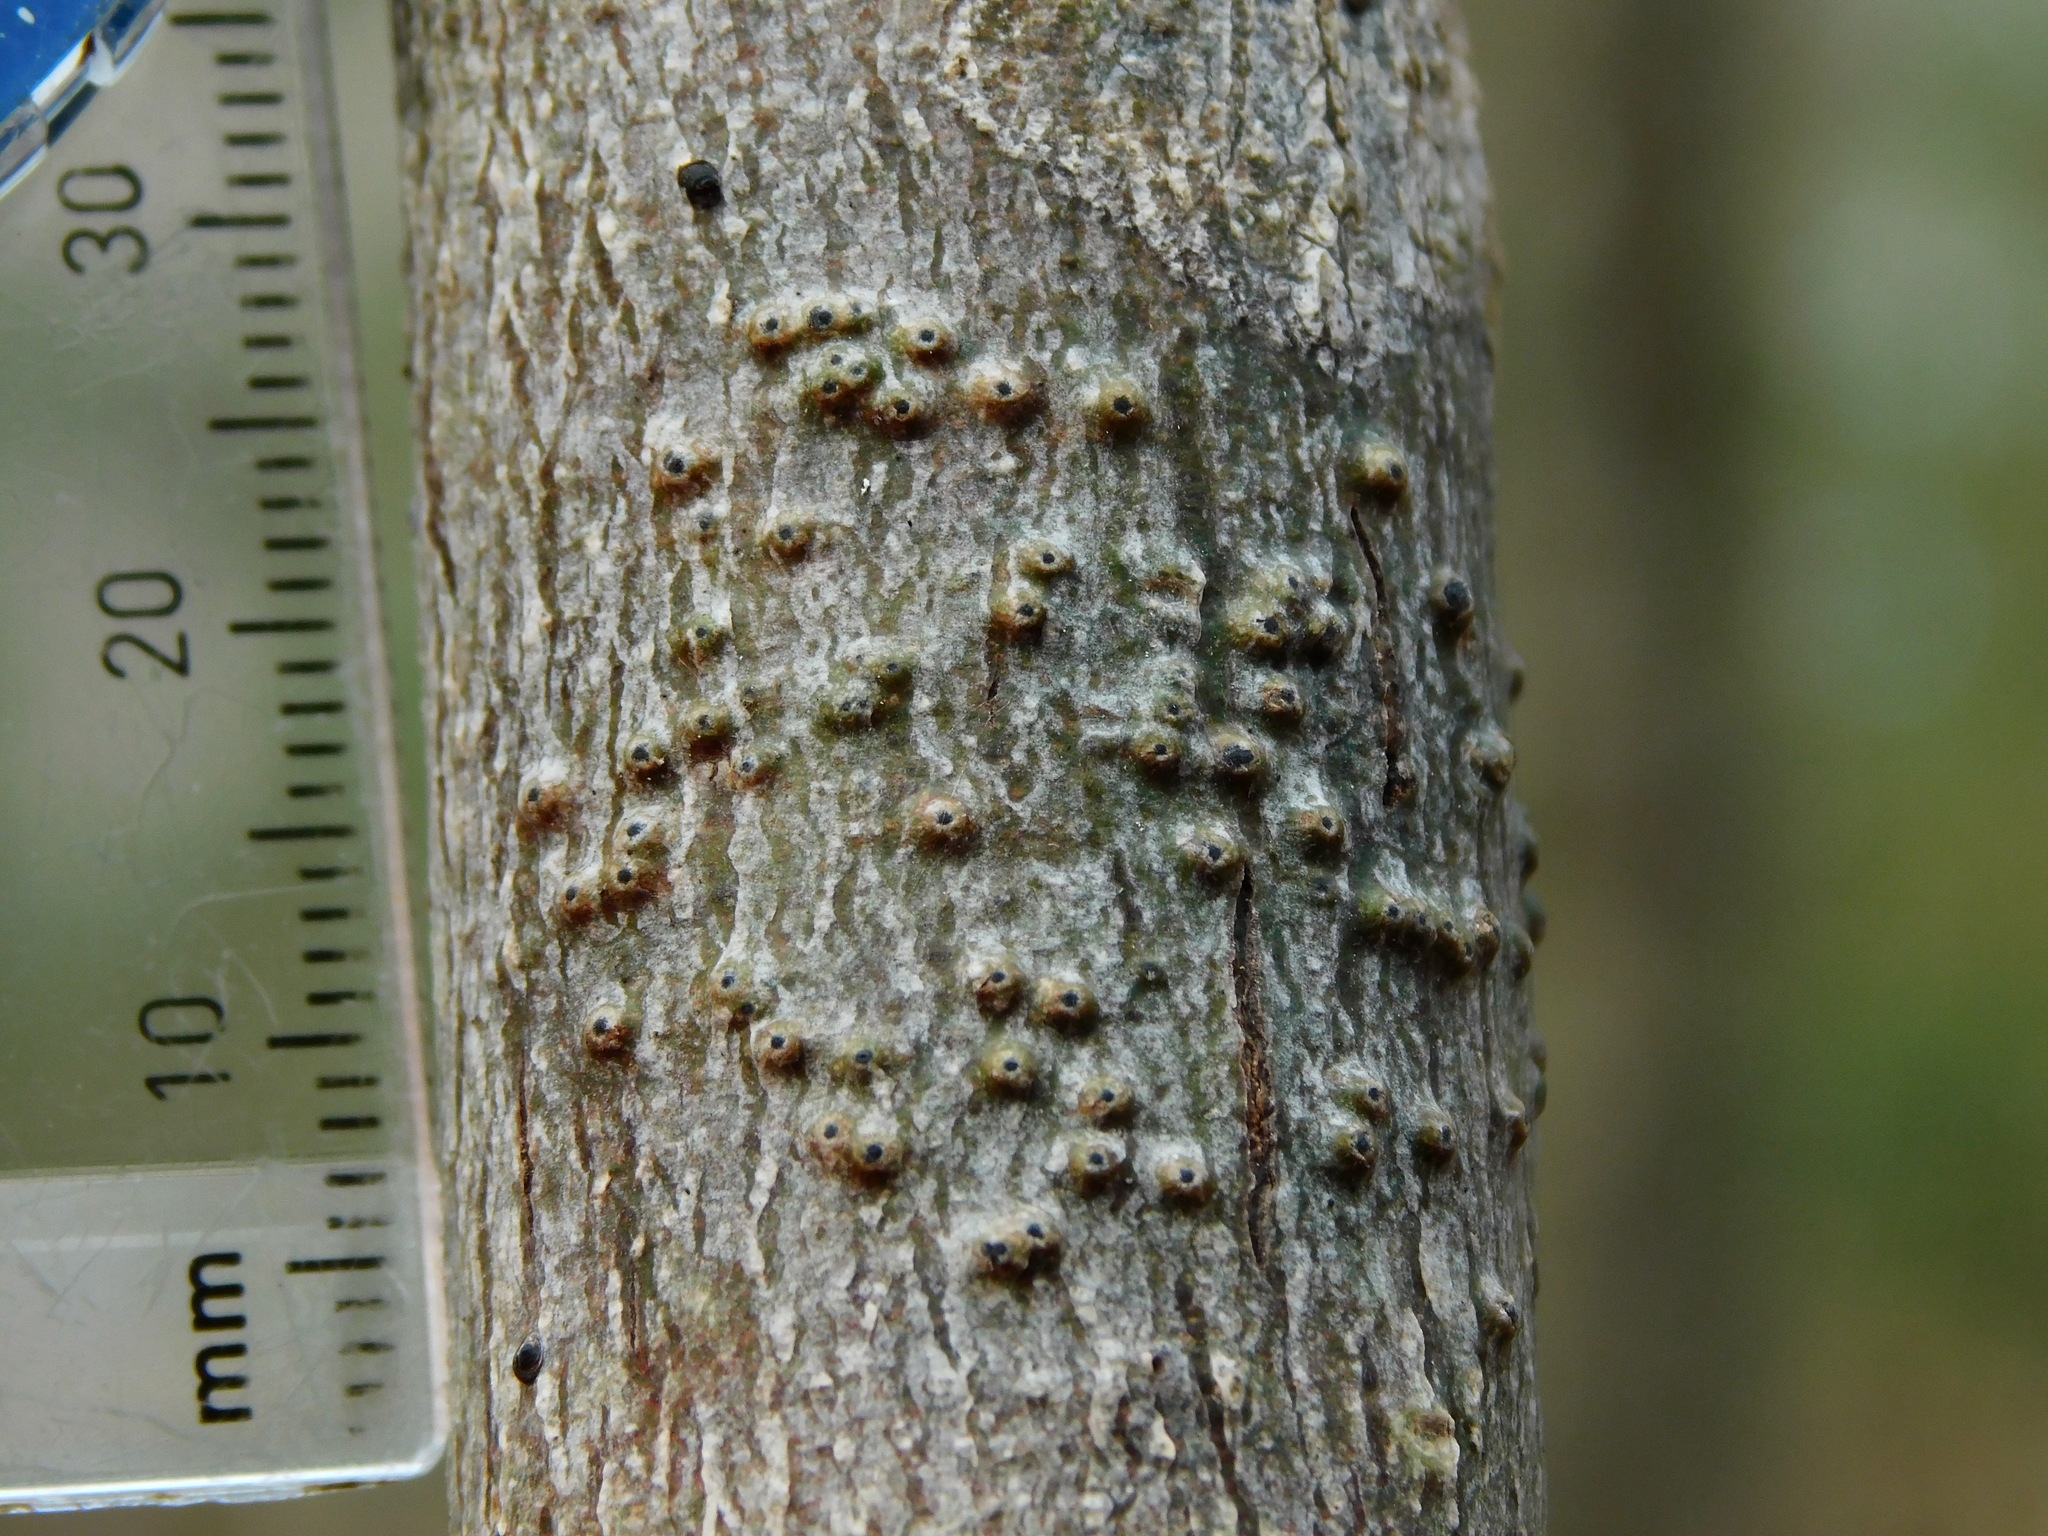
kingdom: Fungi
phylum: Ascomycota
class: Eurotiomycetes
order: Pyrenulales
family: Pyrenulaceae
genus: Anthracothecium
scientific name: Anthracothecium prasinum
